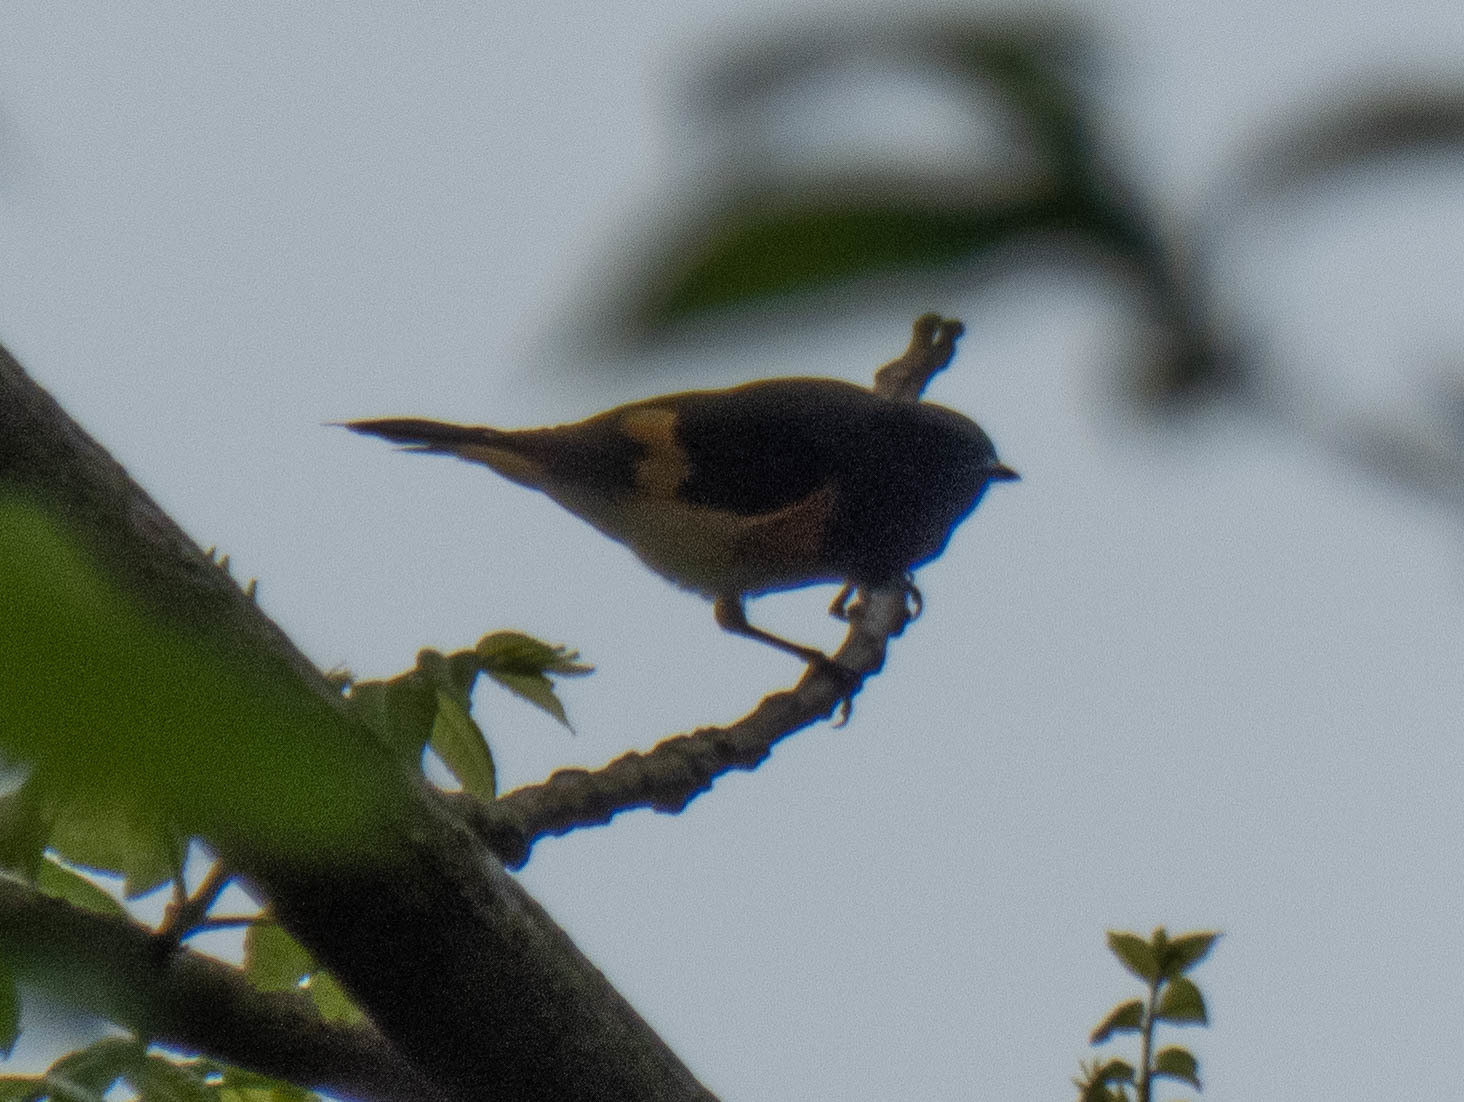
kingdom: Animalia
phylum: Chordata
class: Aves
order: Passeriformes
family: Parulidae
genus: Setophaga
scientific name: Setophaga ruticilla
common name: American redstart
